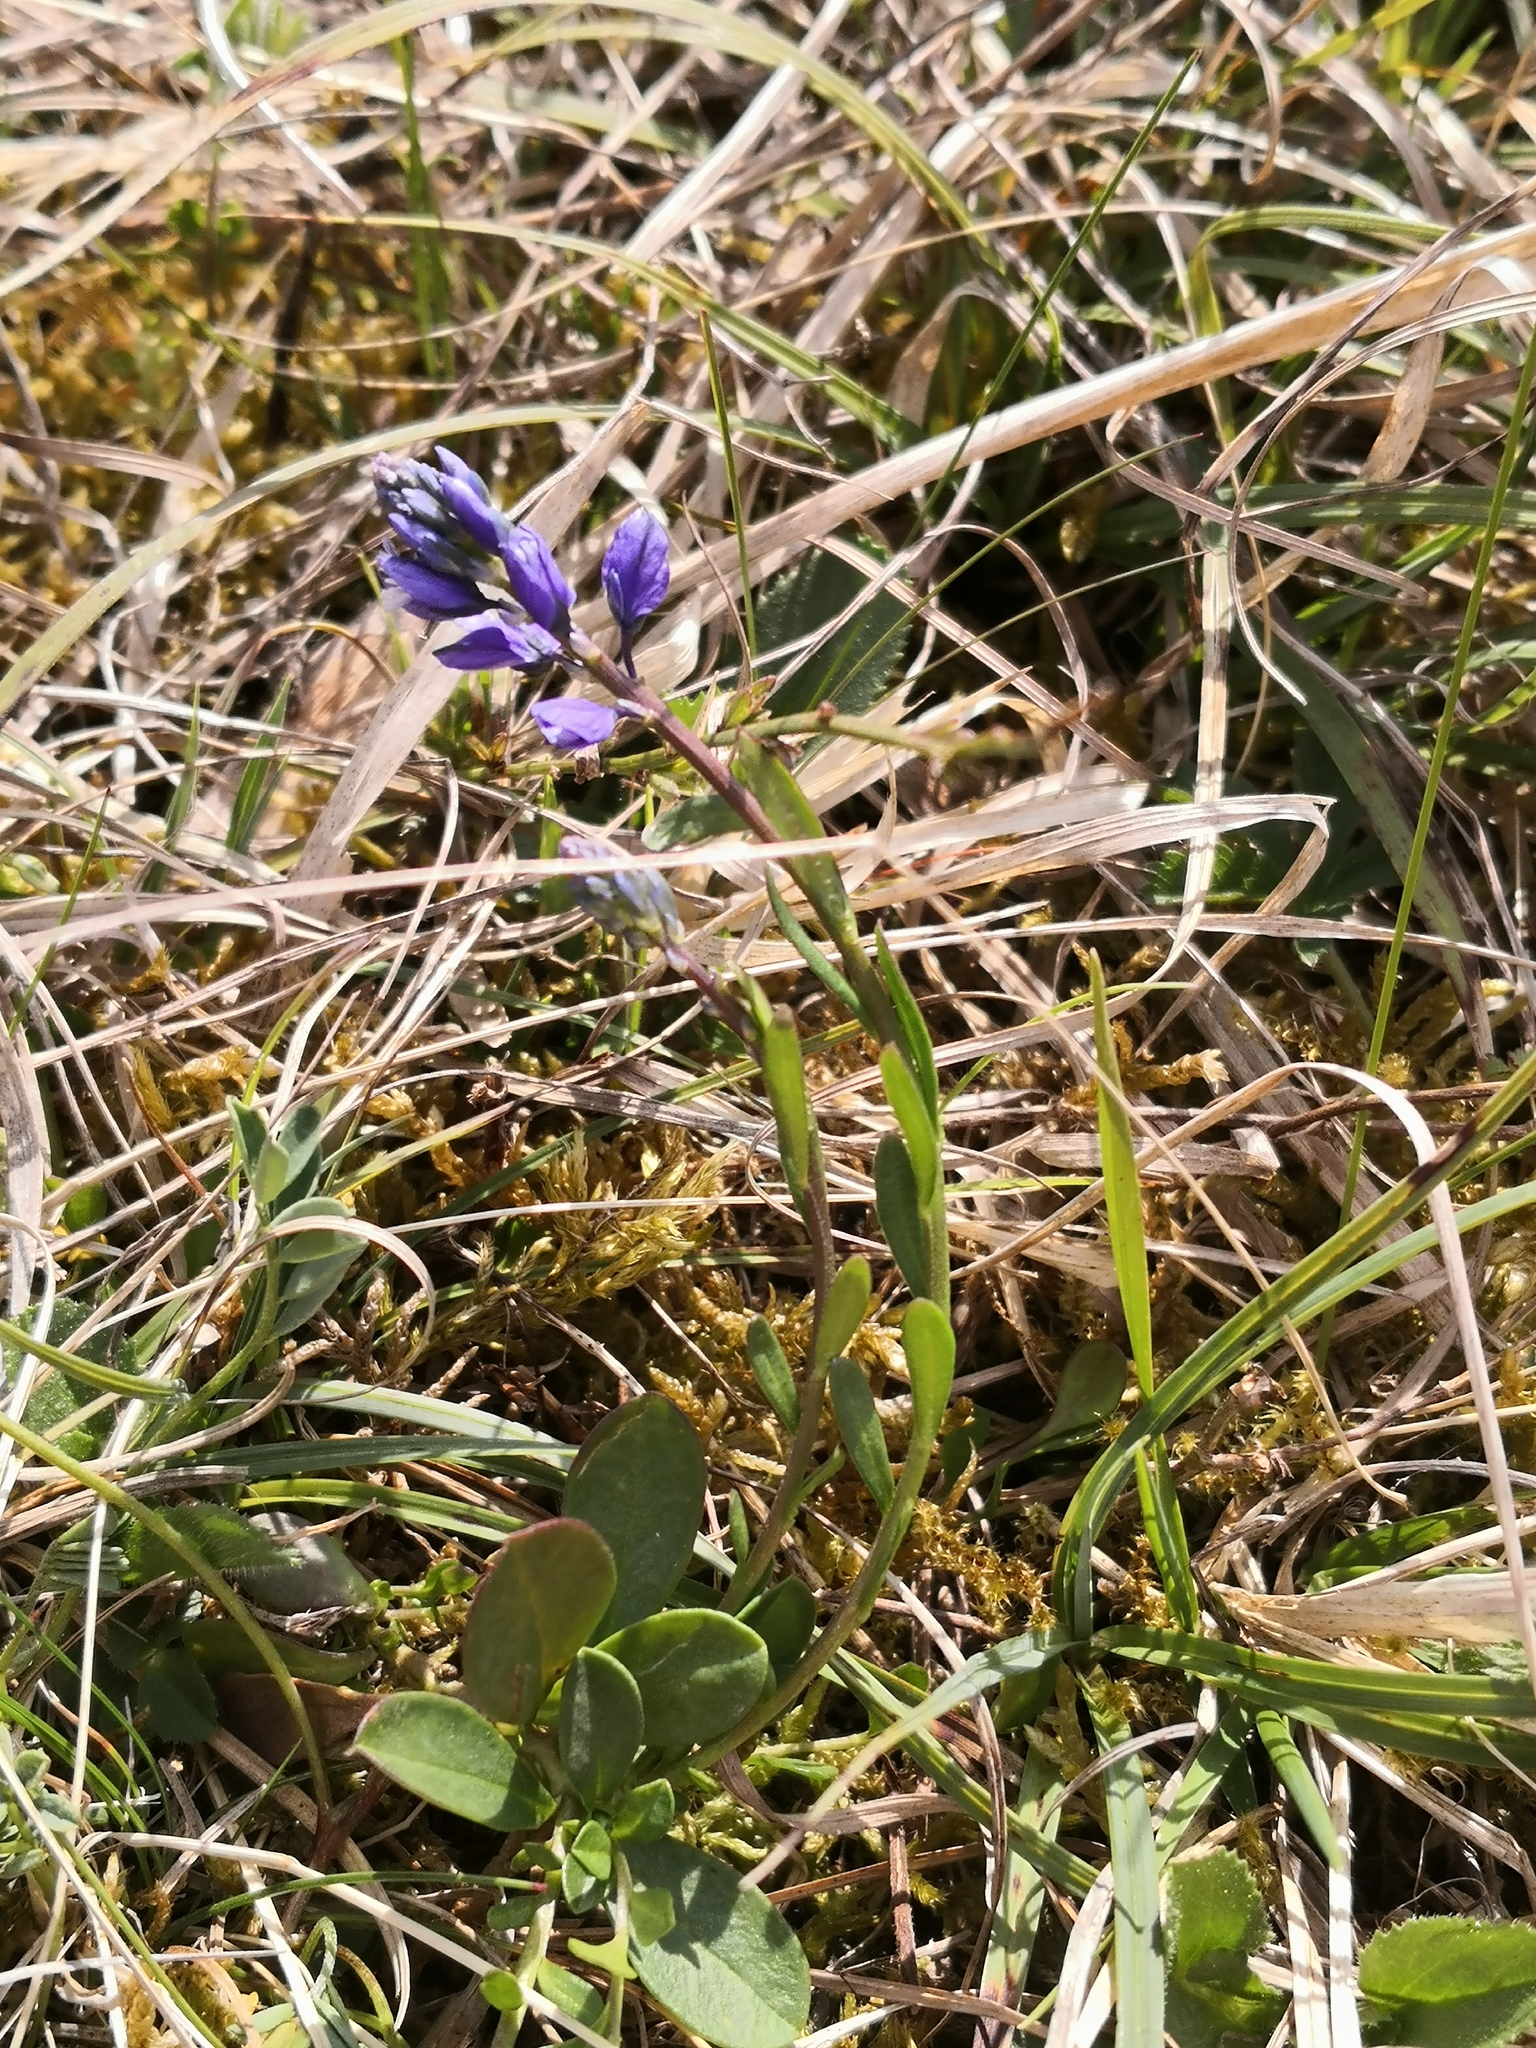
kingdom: Plantae
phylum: Tracheophyta
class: Magnoliopsida
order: Fabales
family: Polygalaceae
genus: Polygala
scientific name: Polygala vulgaris
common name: Common milkwort
